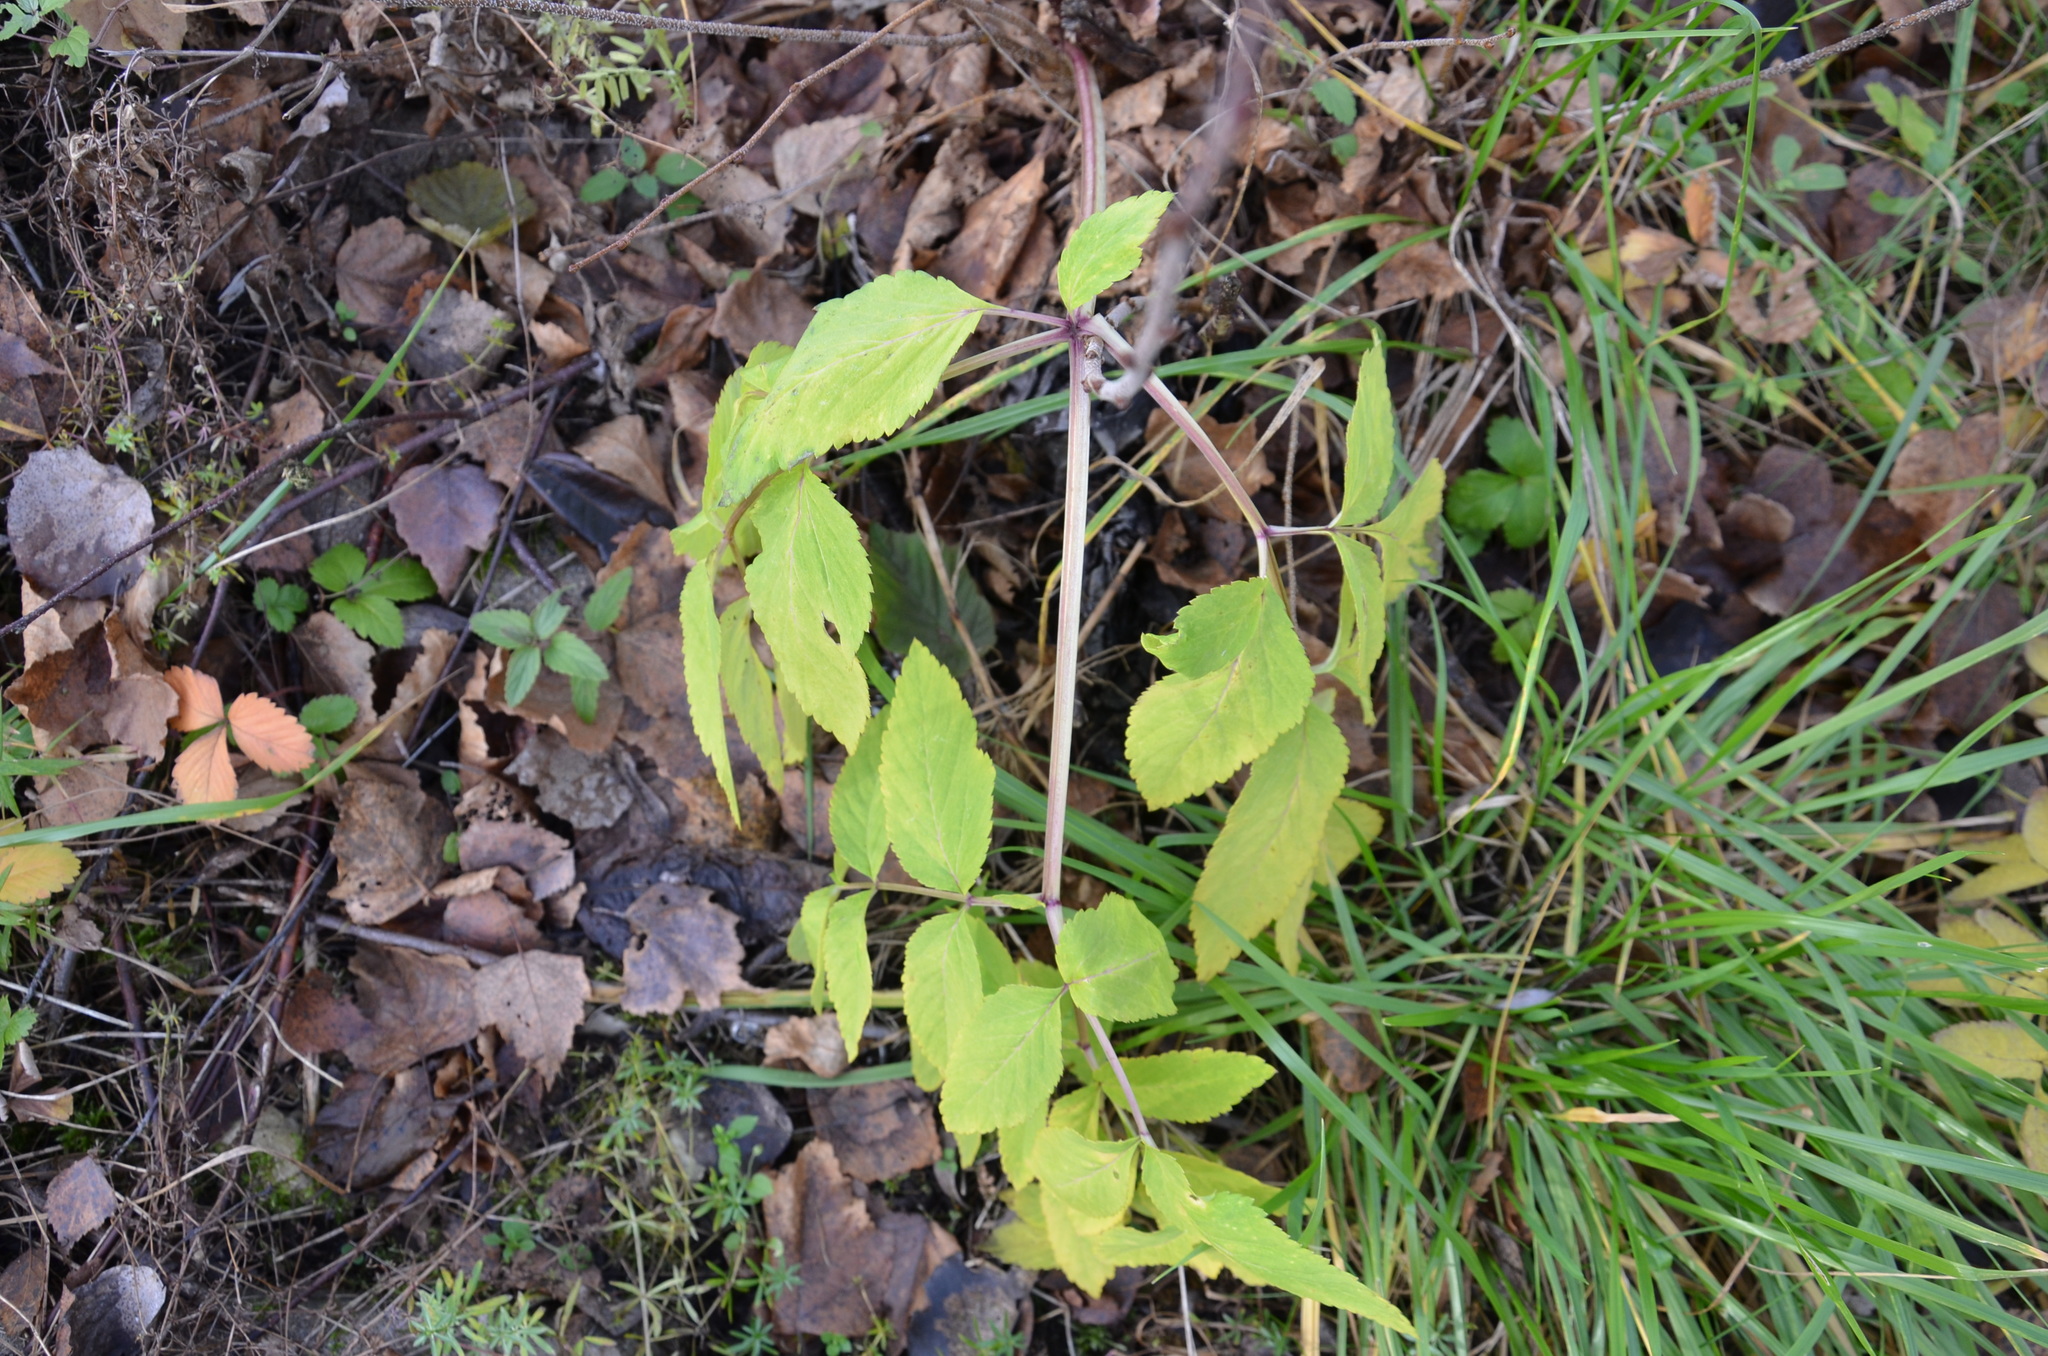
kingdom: Plantae
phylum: Tracheophyta
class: Magnoliopsida
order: Apiales
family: Apiaceae
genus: Angelica
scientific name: Angelica sylvestris
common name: Wild angelica
